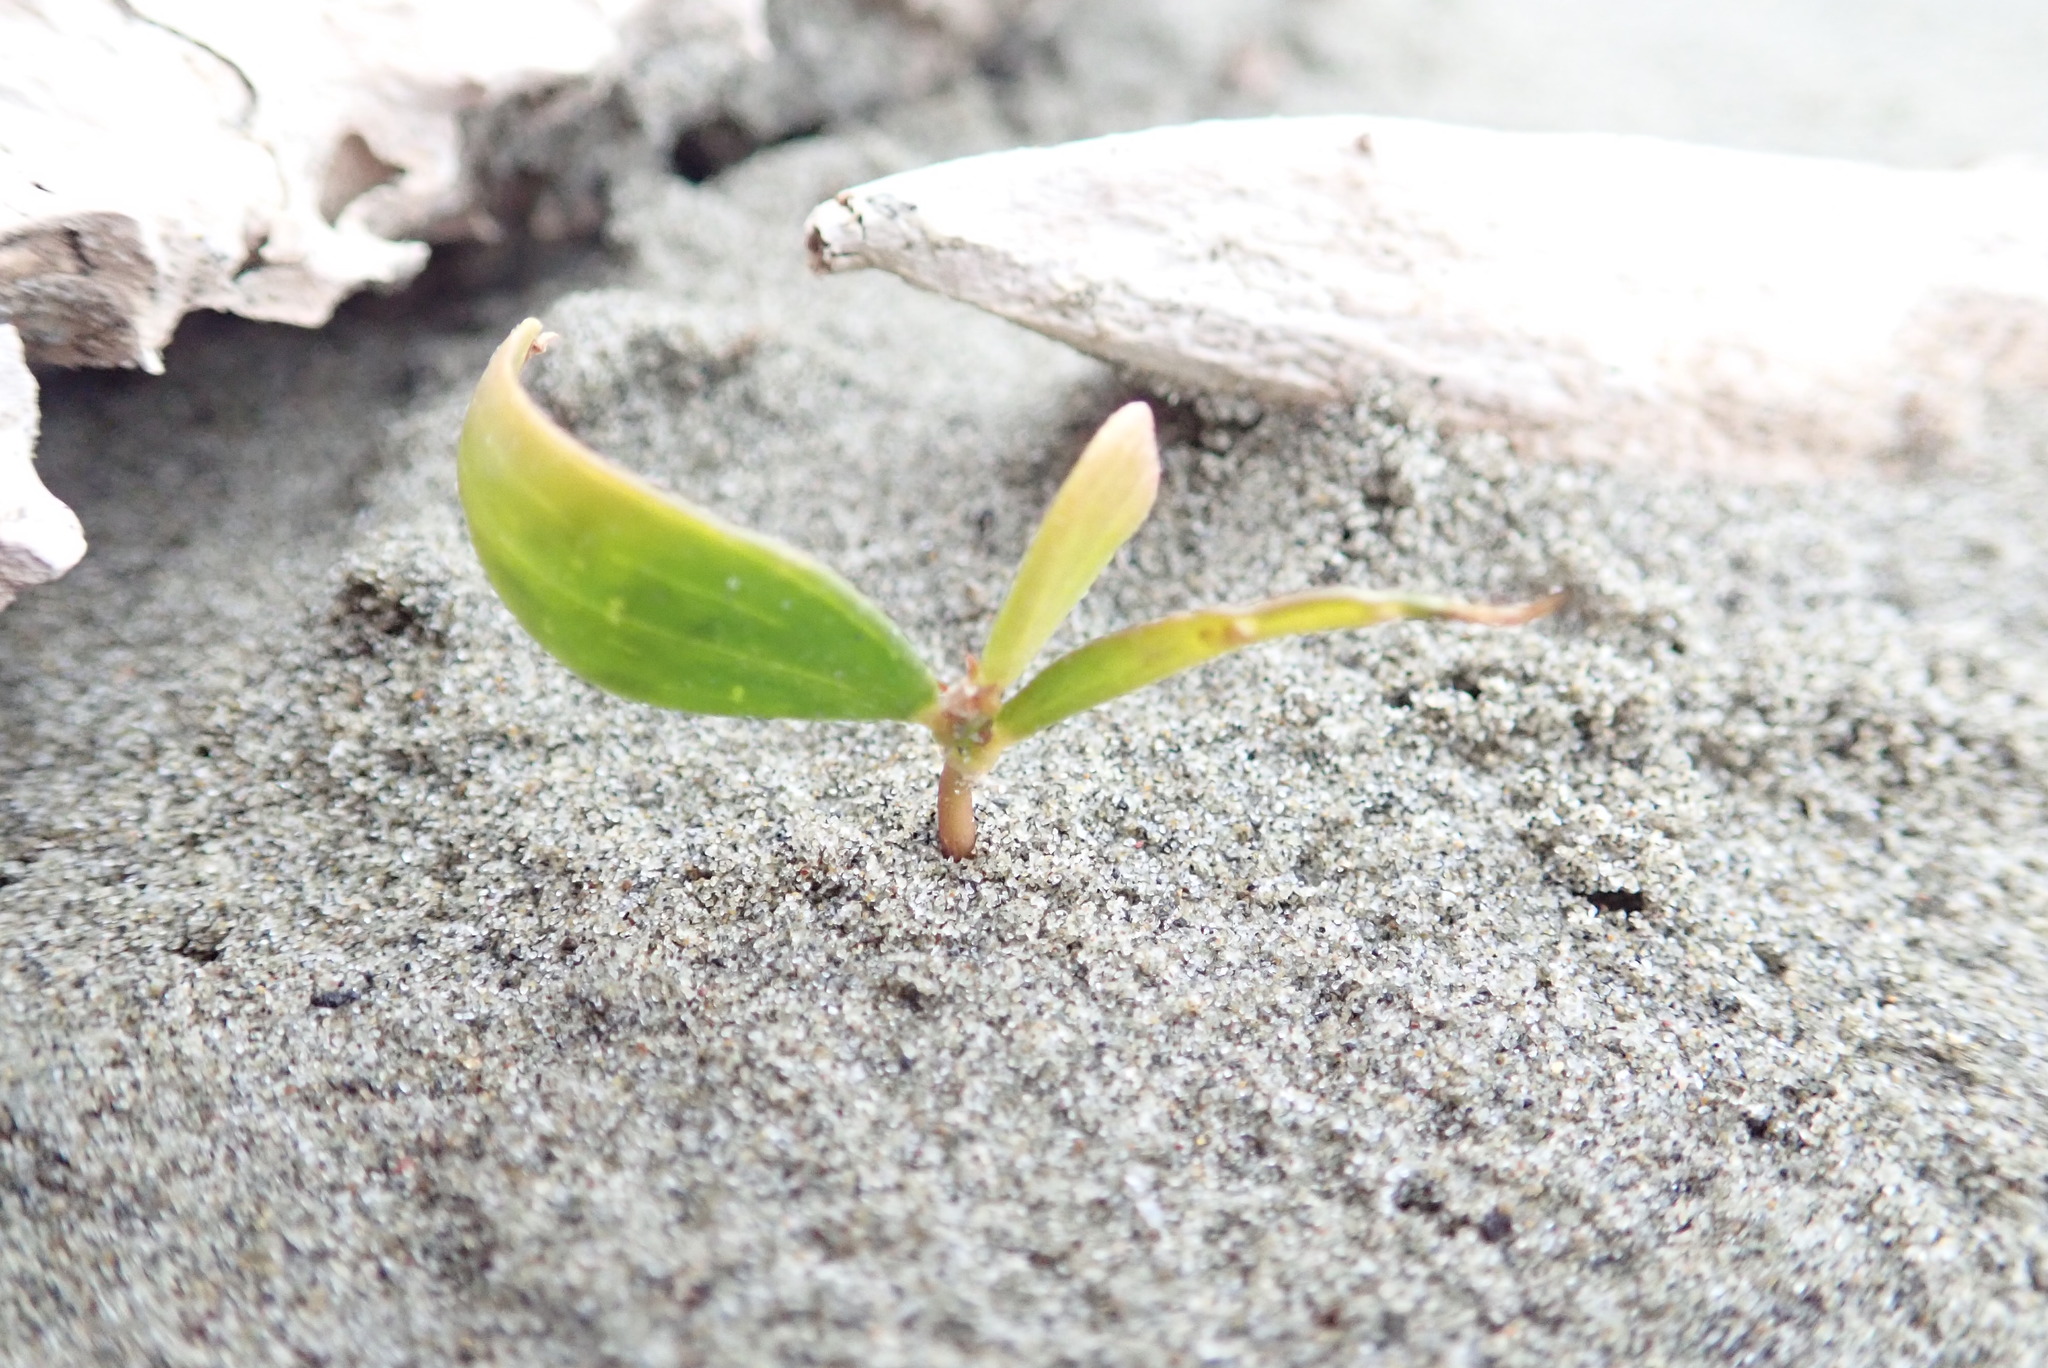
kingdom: Plantae
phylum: Tracheophyta
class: Magnoliopsida
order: Fabales
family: Fabaceae
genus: Acacia
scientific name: Acacia longifolia
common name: Sydney golden wattle
